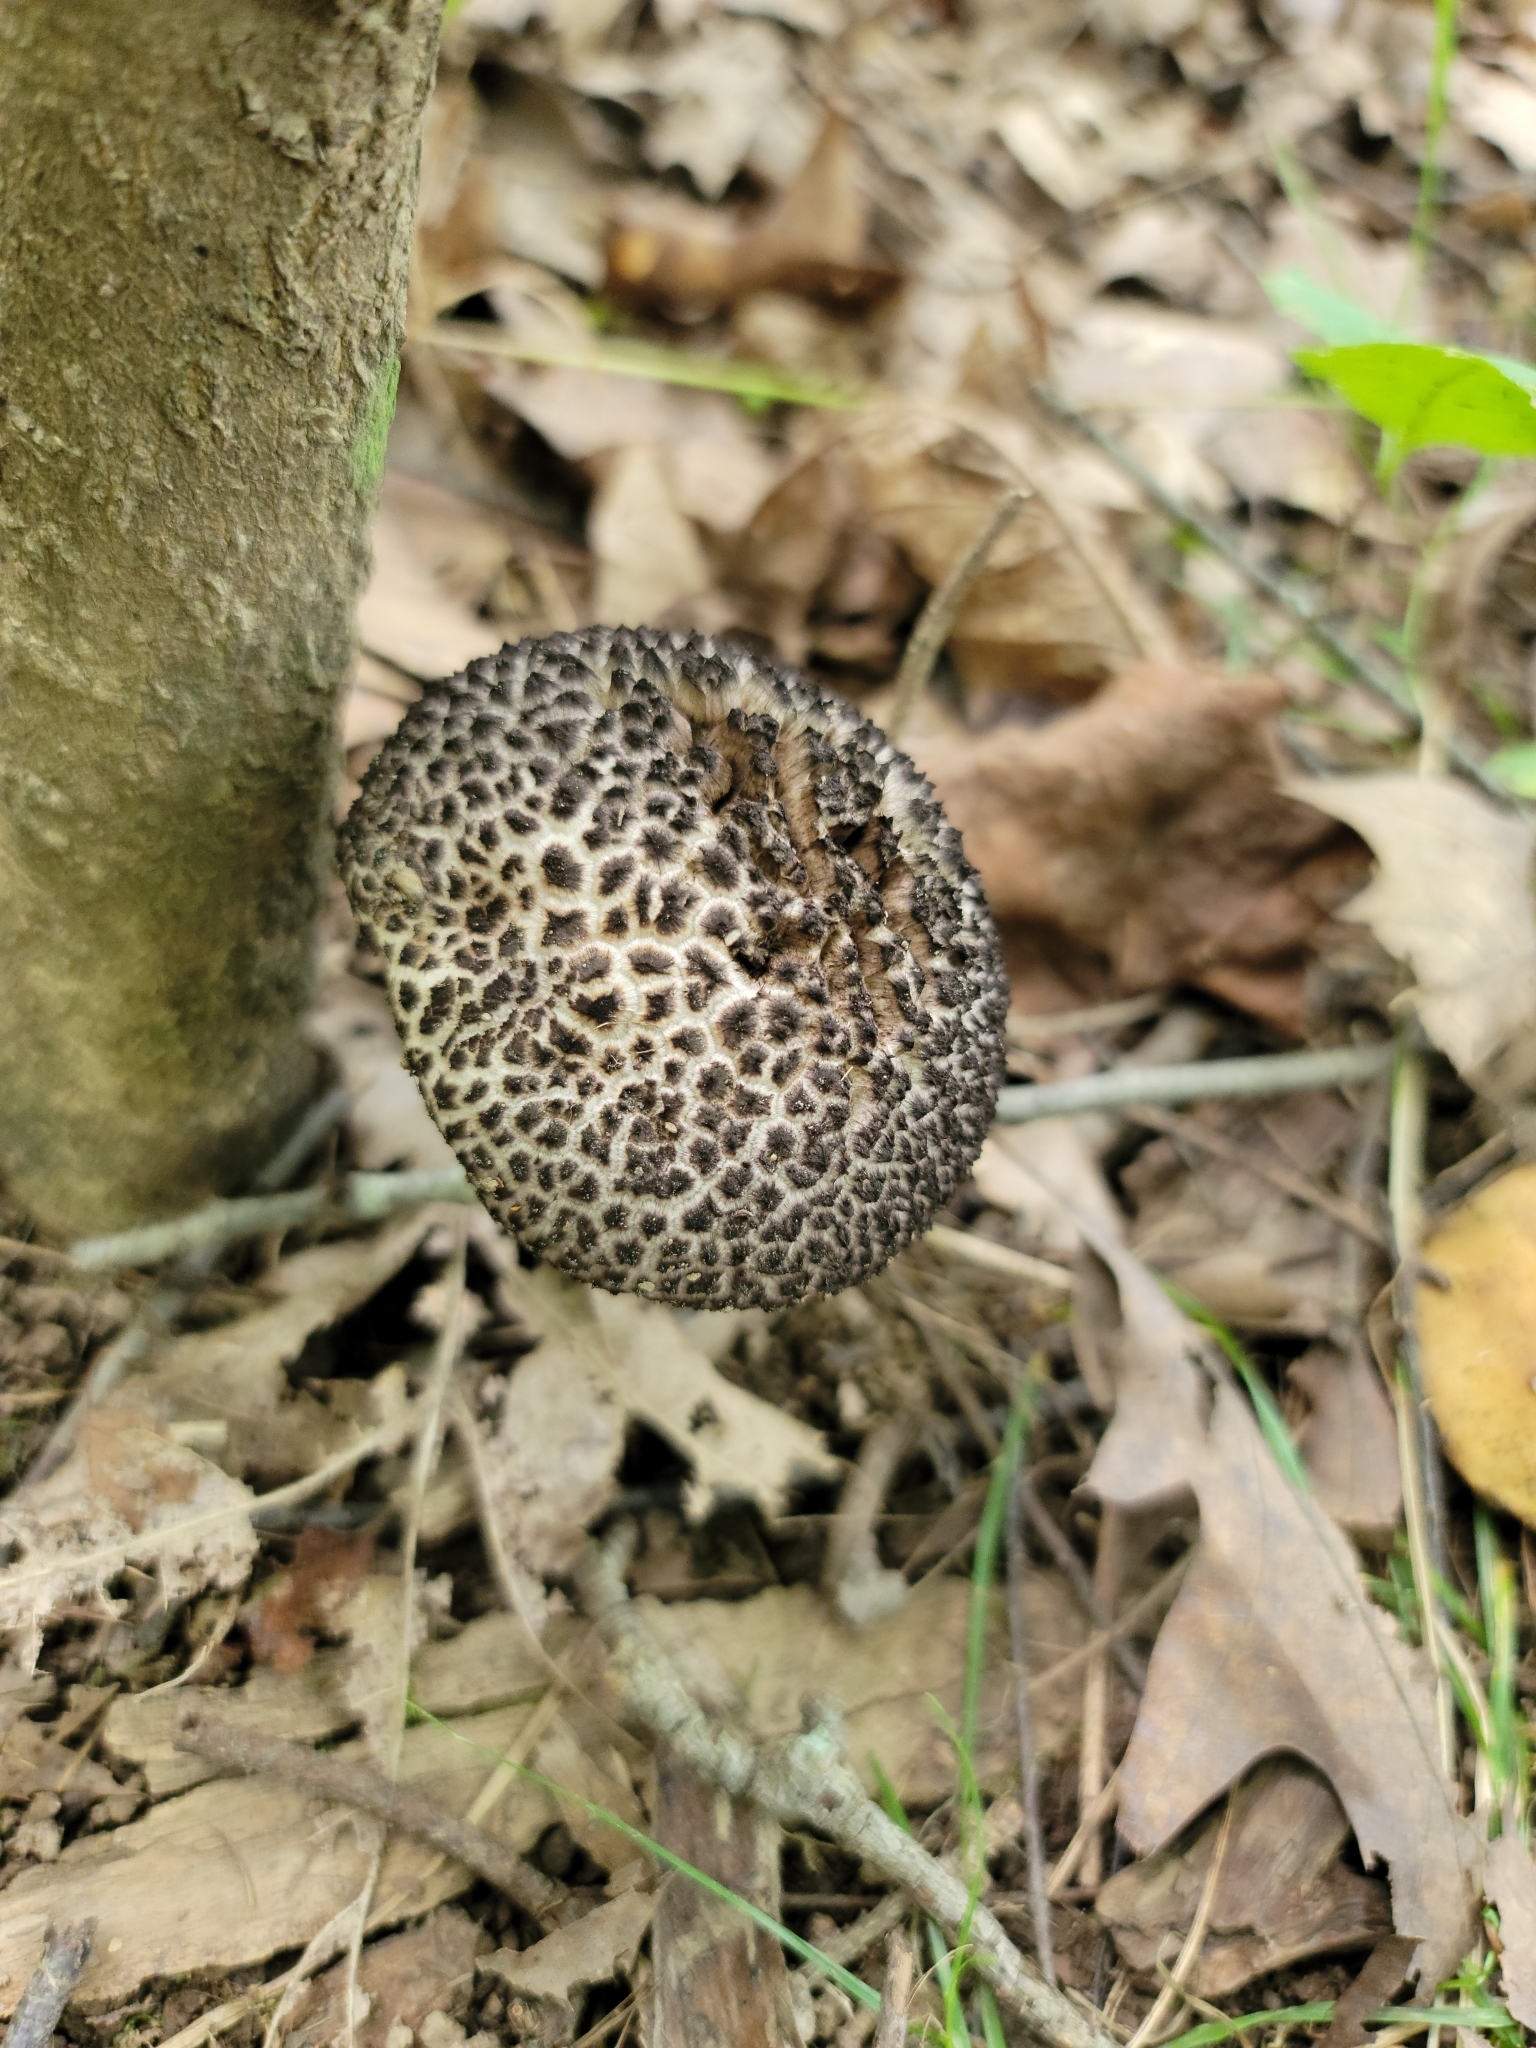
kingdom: Fungi
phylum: Basidiomycota
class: Agaricomycetes
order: Boletales
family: Boletaceae
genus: Strobilomyces
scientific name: Strobilomyces strobilaceus
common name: Old man of the woods
